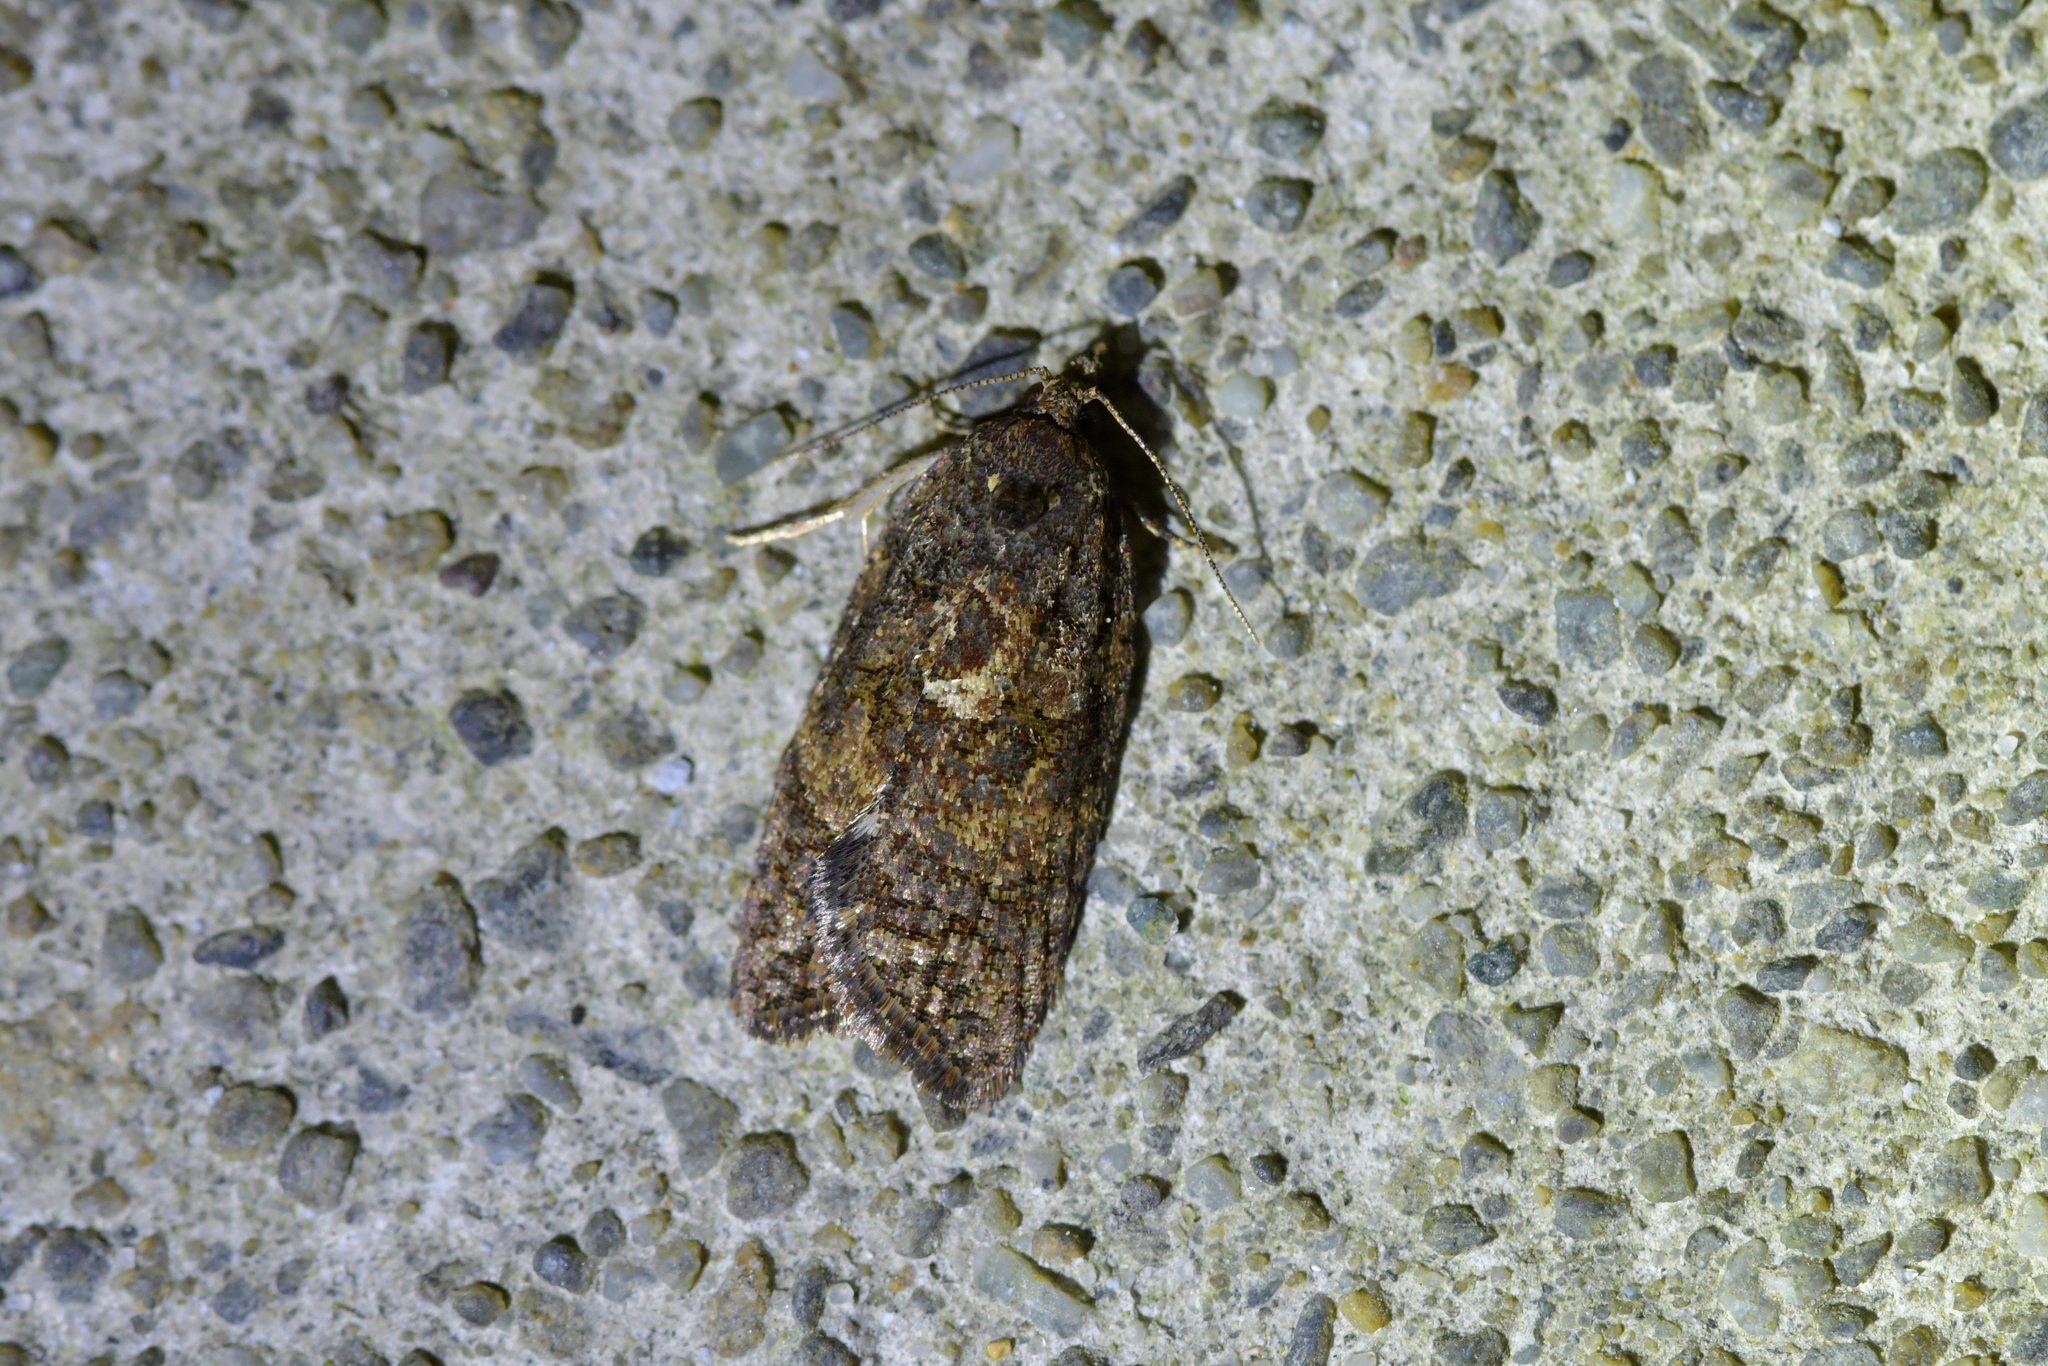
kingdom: Animalia
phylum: Arthropoda
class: Insecta
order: Lepidoptera
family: Tortricidae
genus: Capua
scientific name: Capua intractana
